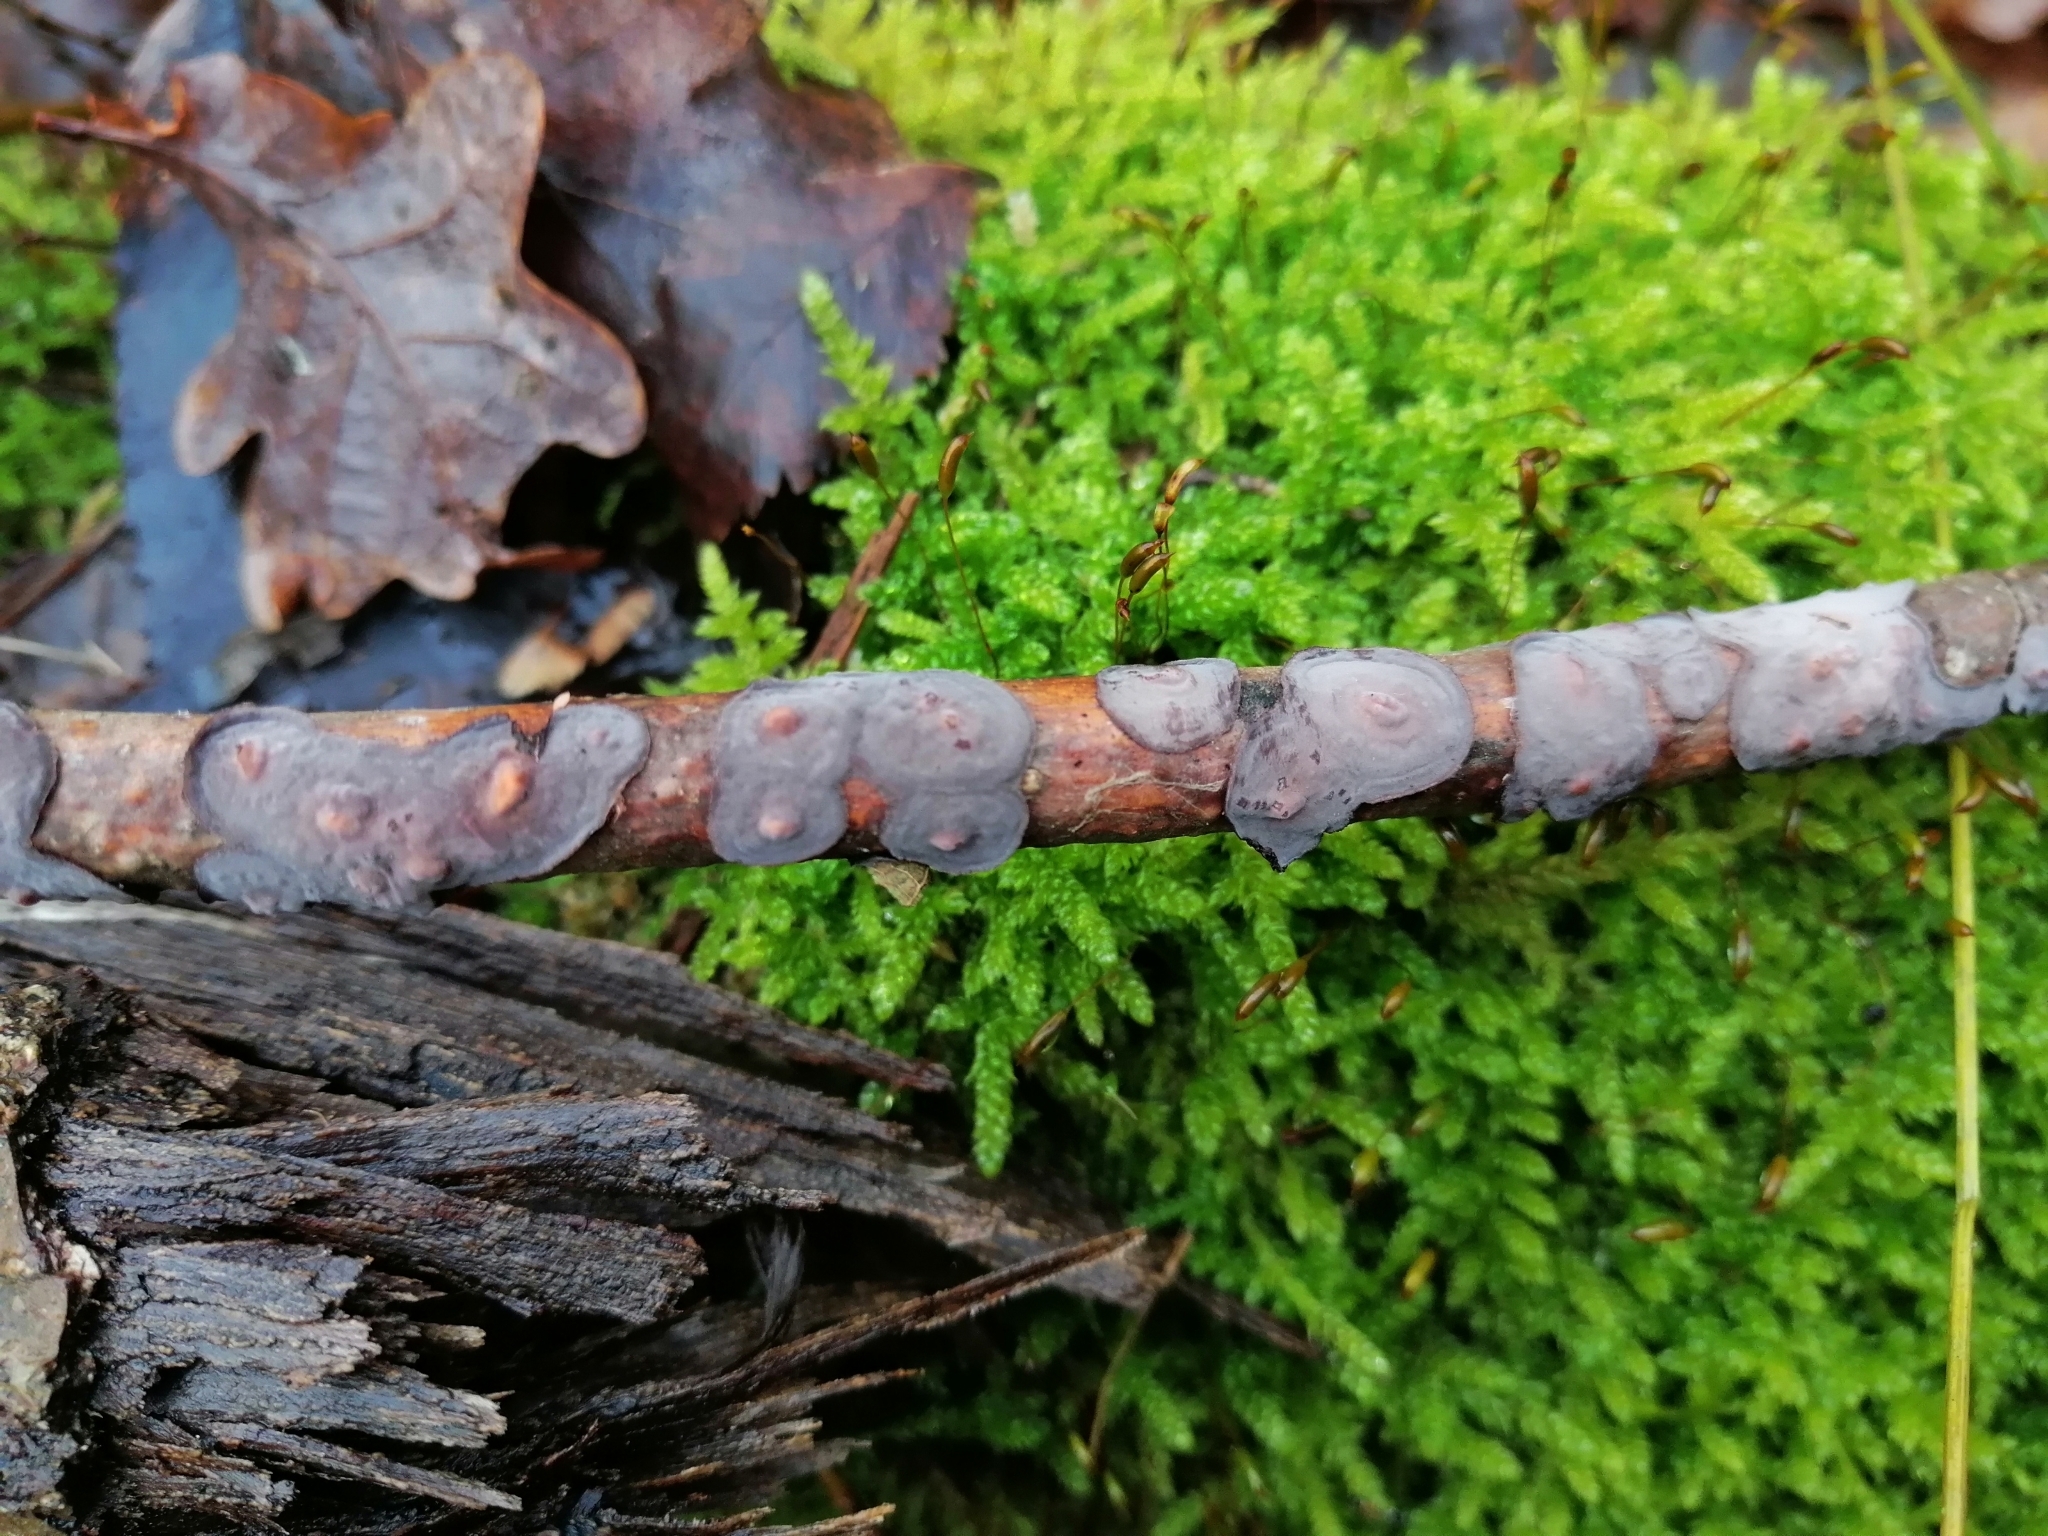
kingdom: Fungi
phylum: Basidiomycota
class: Agaricomycetes
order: Russulales
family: Peniophoraceae
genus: Peniophora
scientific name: Peniophora quercina
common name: Oak crust
